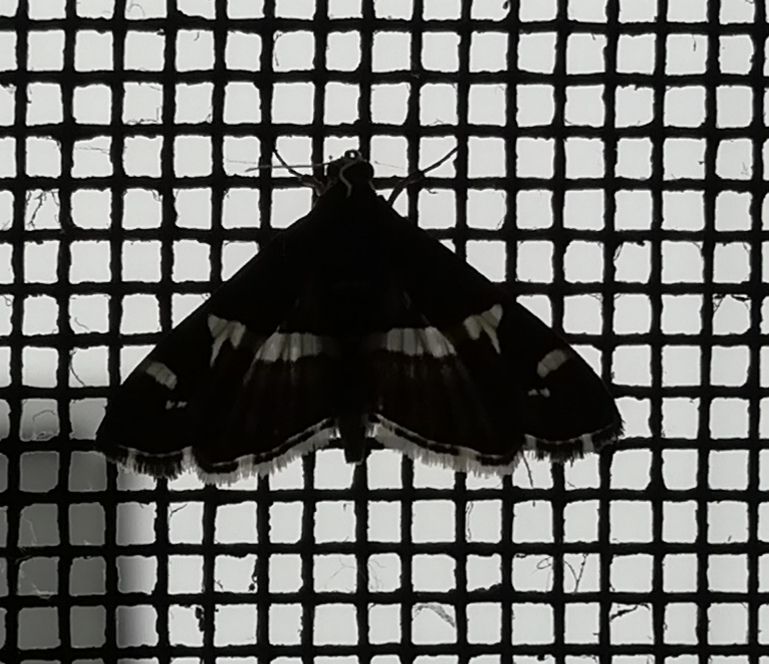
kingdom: Animalia
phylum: Arthropoda
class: Insecta
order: Lepidoptera
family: Crambidae
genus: Spoladea
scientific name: Spoladea recurvalis
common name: Beet webworm moth
